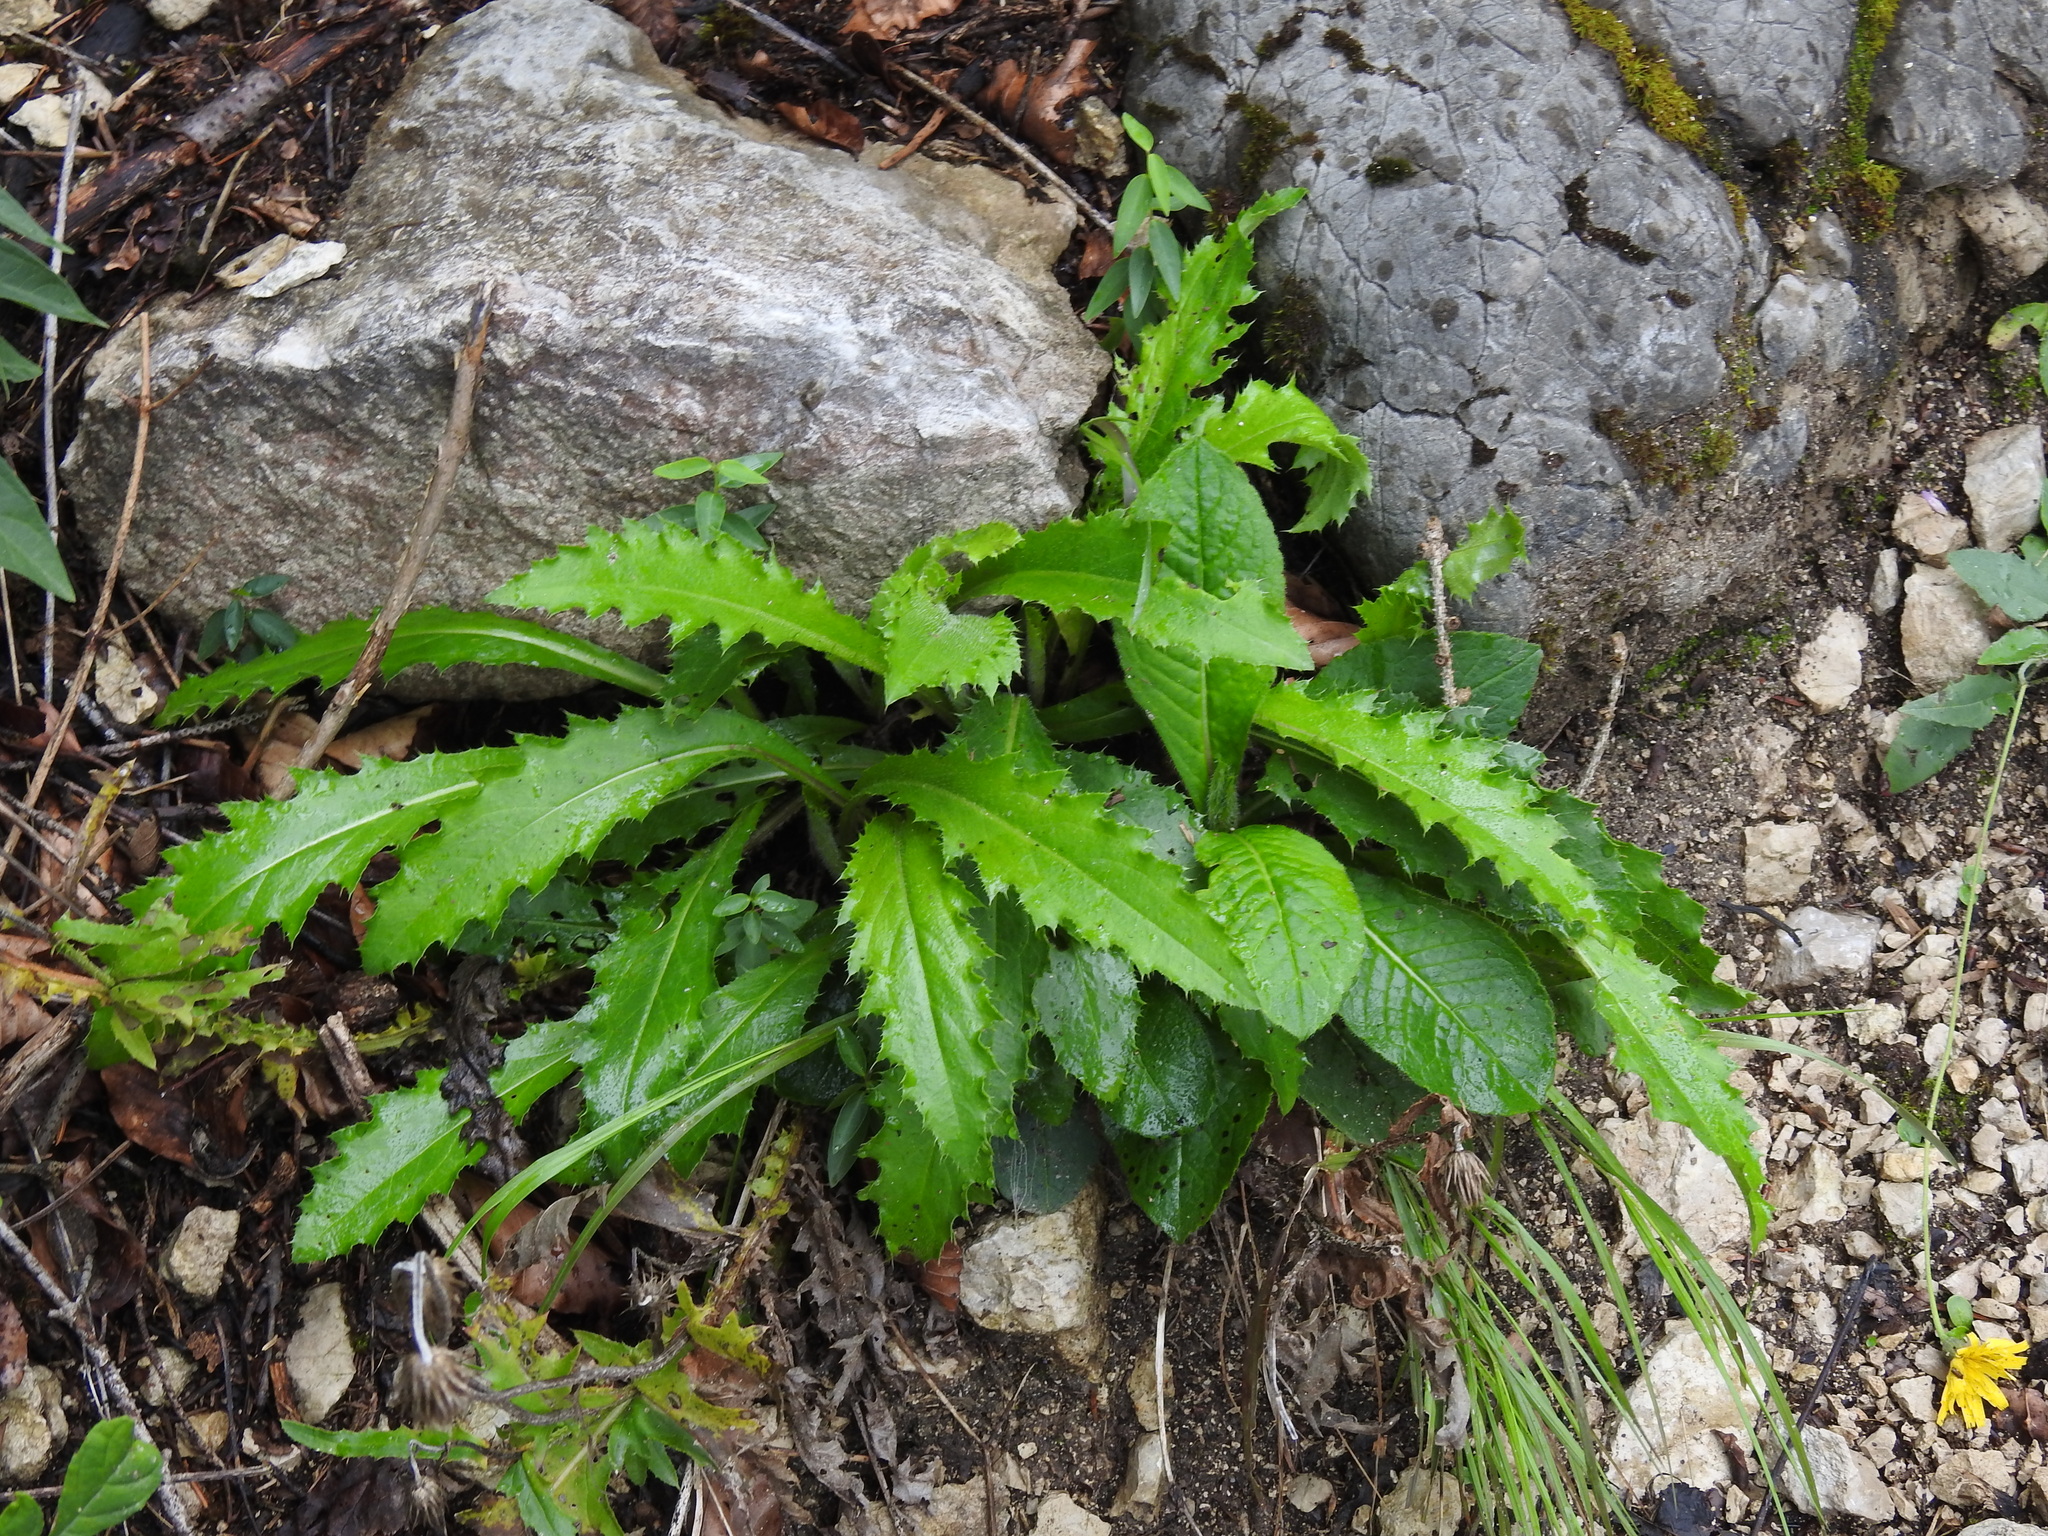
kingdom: Plantae
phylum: Tracheophyta
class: Magnoliopsida
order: Asterales
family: Asteraceae
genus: Carduus
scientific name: Carduus defloratus
